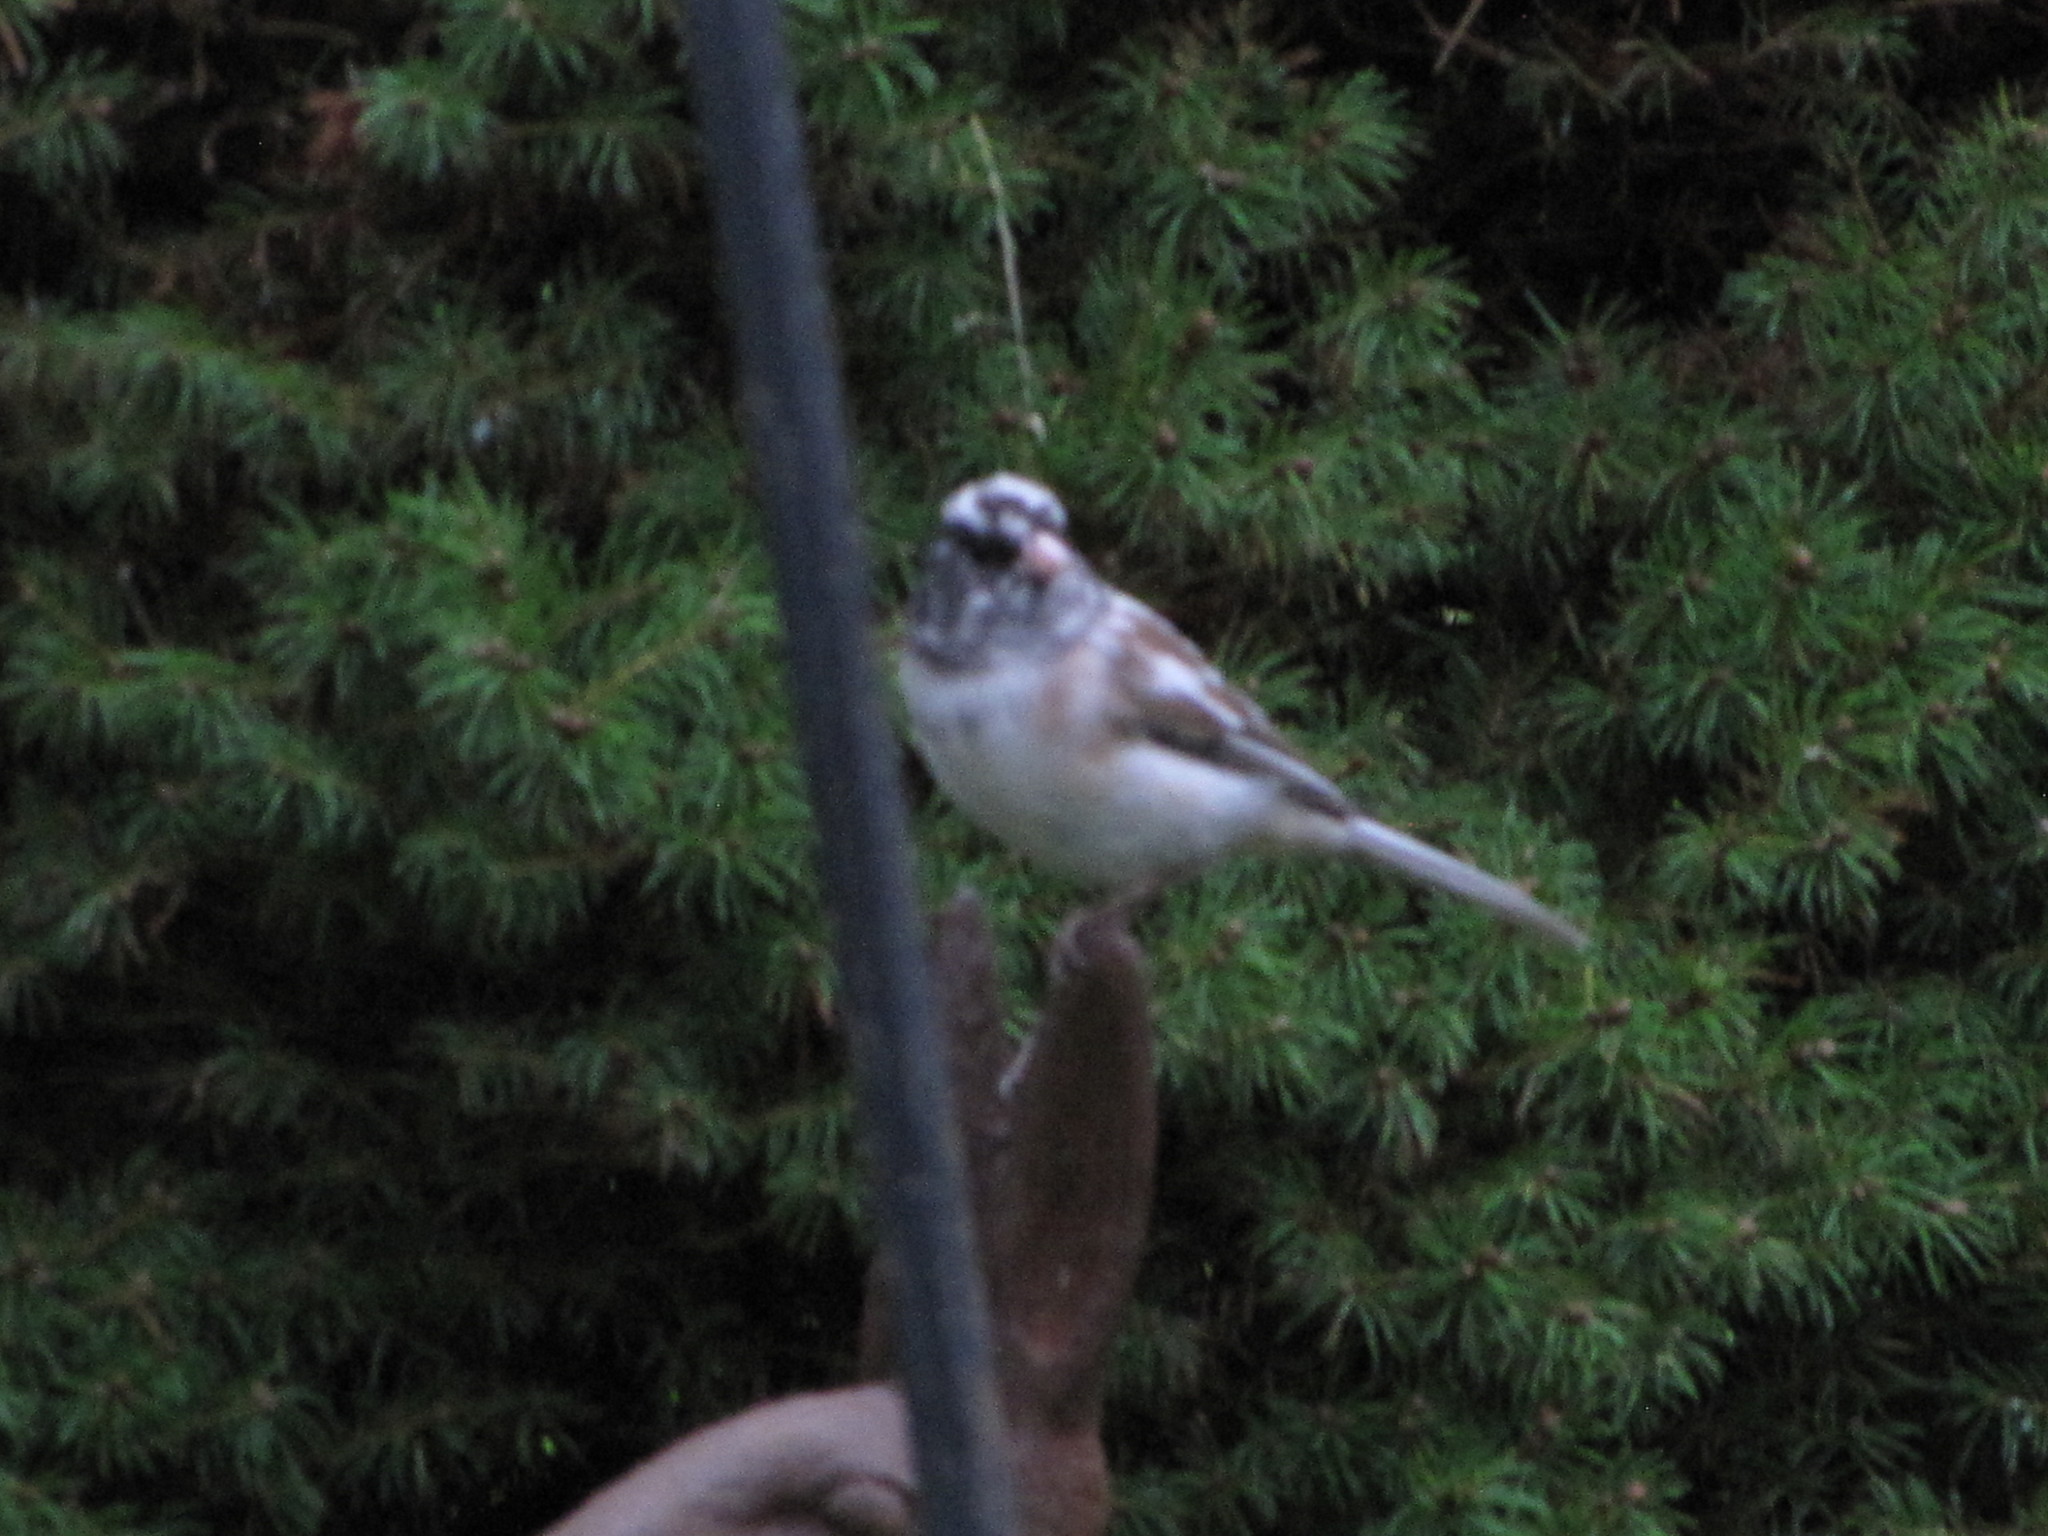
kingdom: Animalia
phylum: Chordata
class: Aves
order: Passeriformes
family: Passerellidae
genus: Junco
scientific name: Junco hyemalis
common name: Dark-eyed junco
